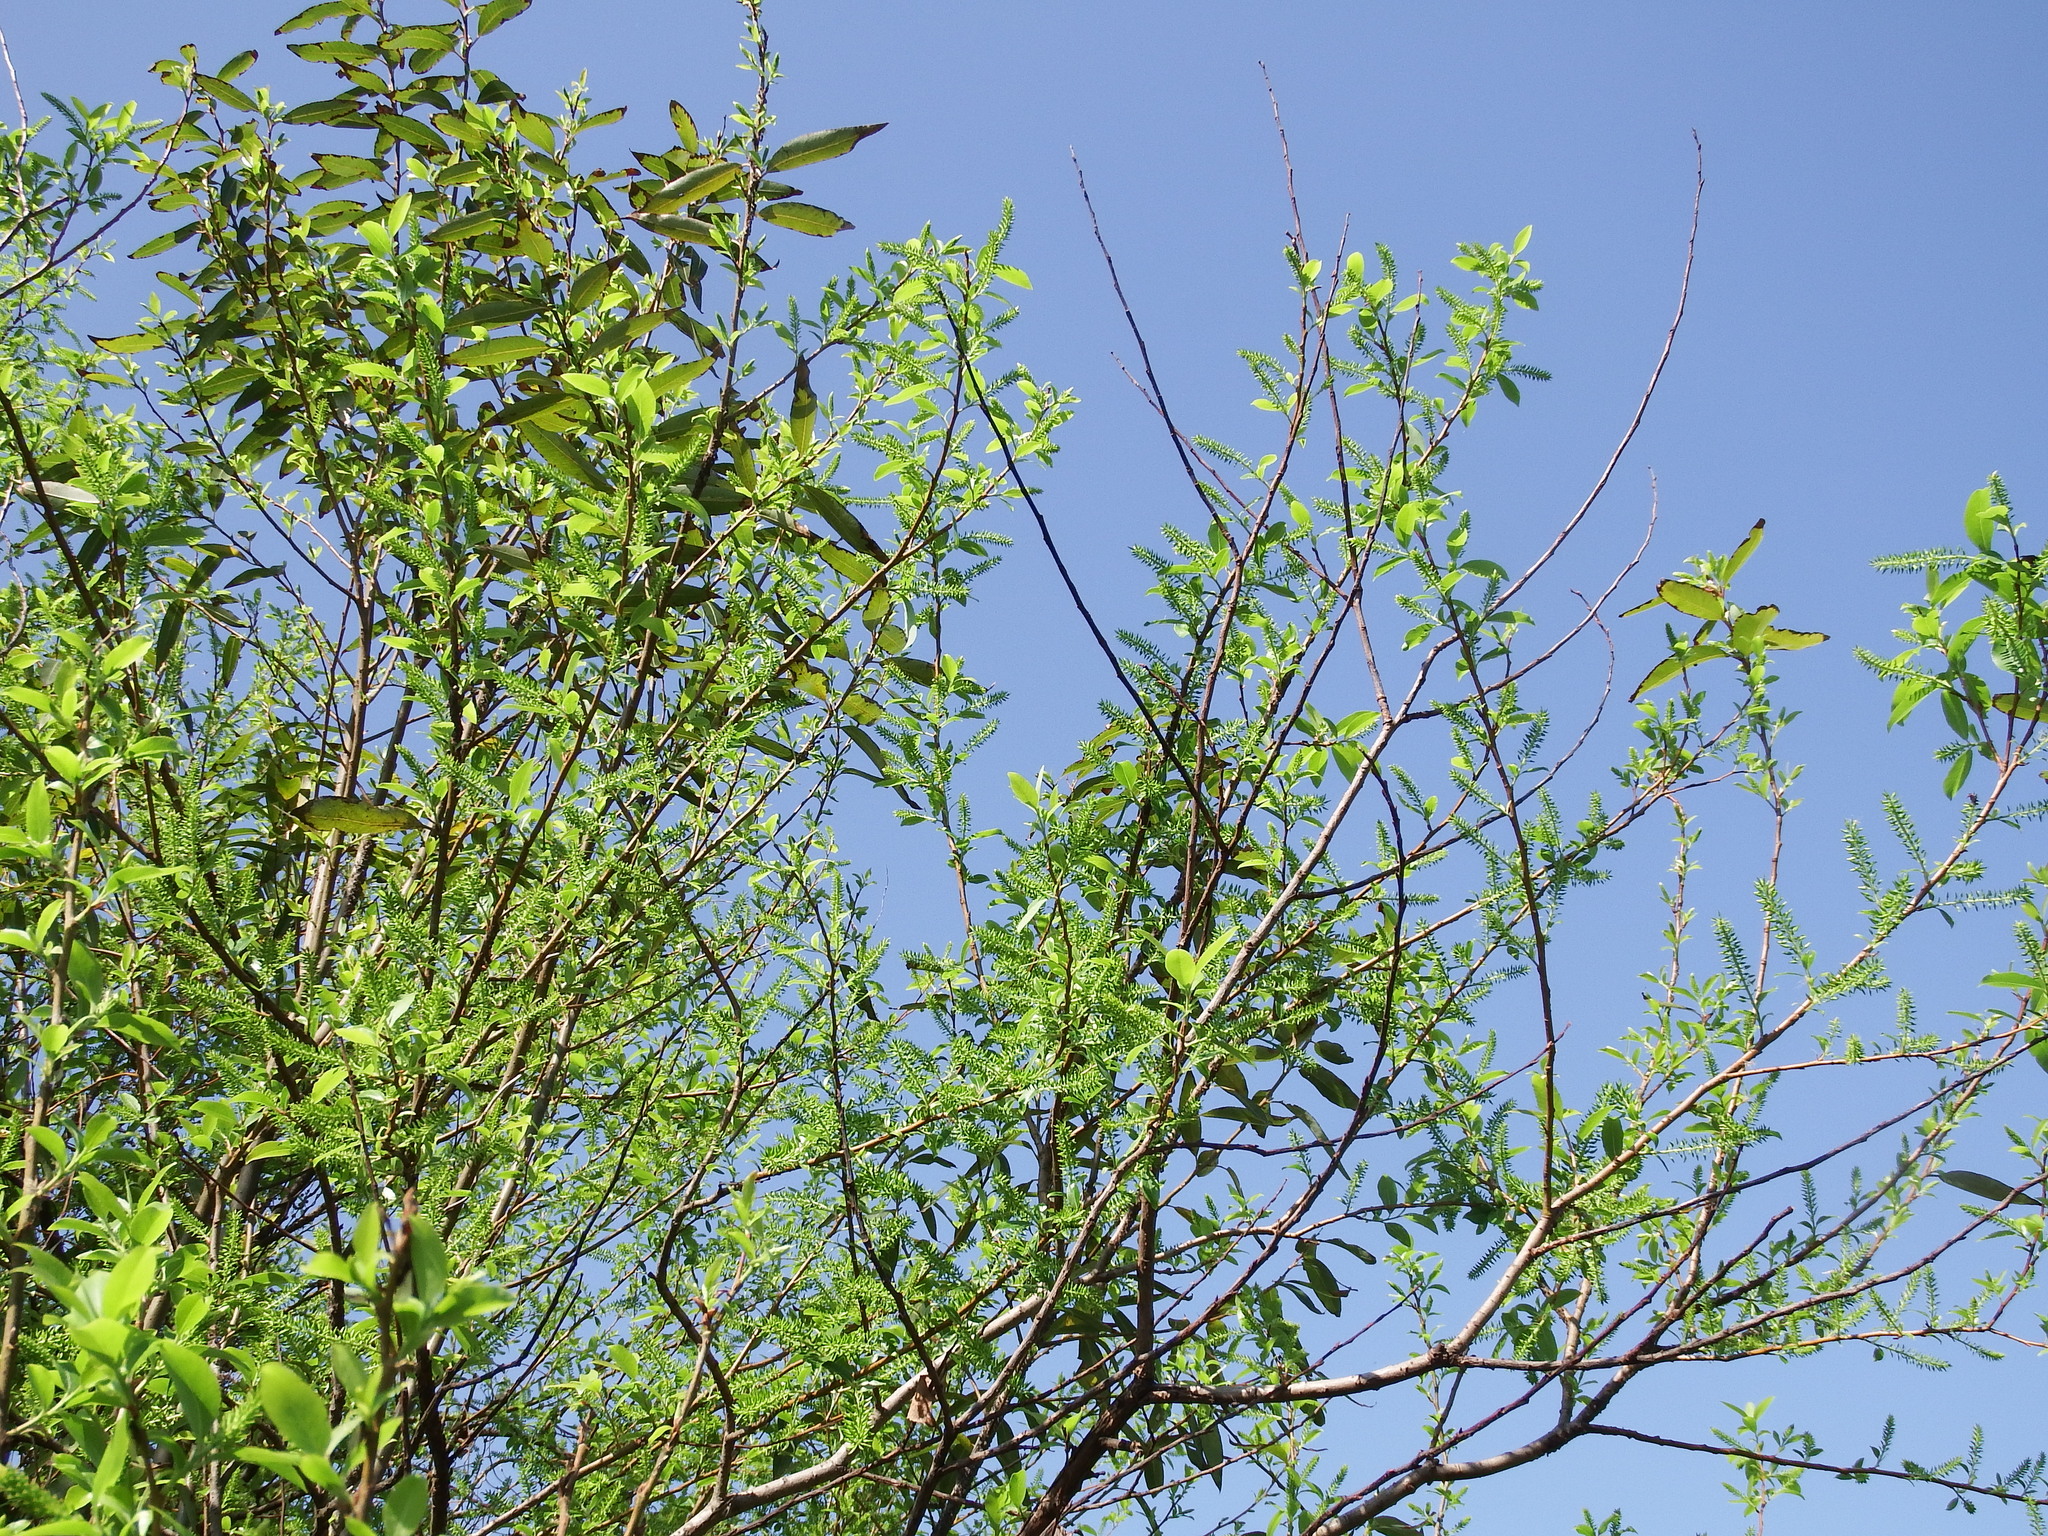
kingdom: Plantae
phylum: Tracheophyta
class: Magnoliopsida
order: Malpighiales
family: Salicaceae
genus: Salix
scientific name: Salix mesnyi
